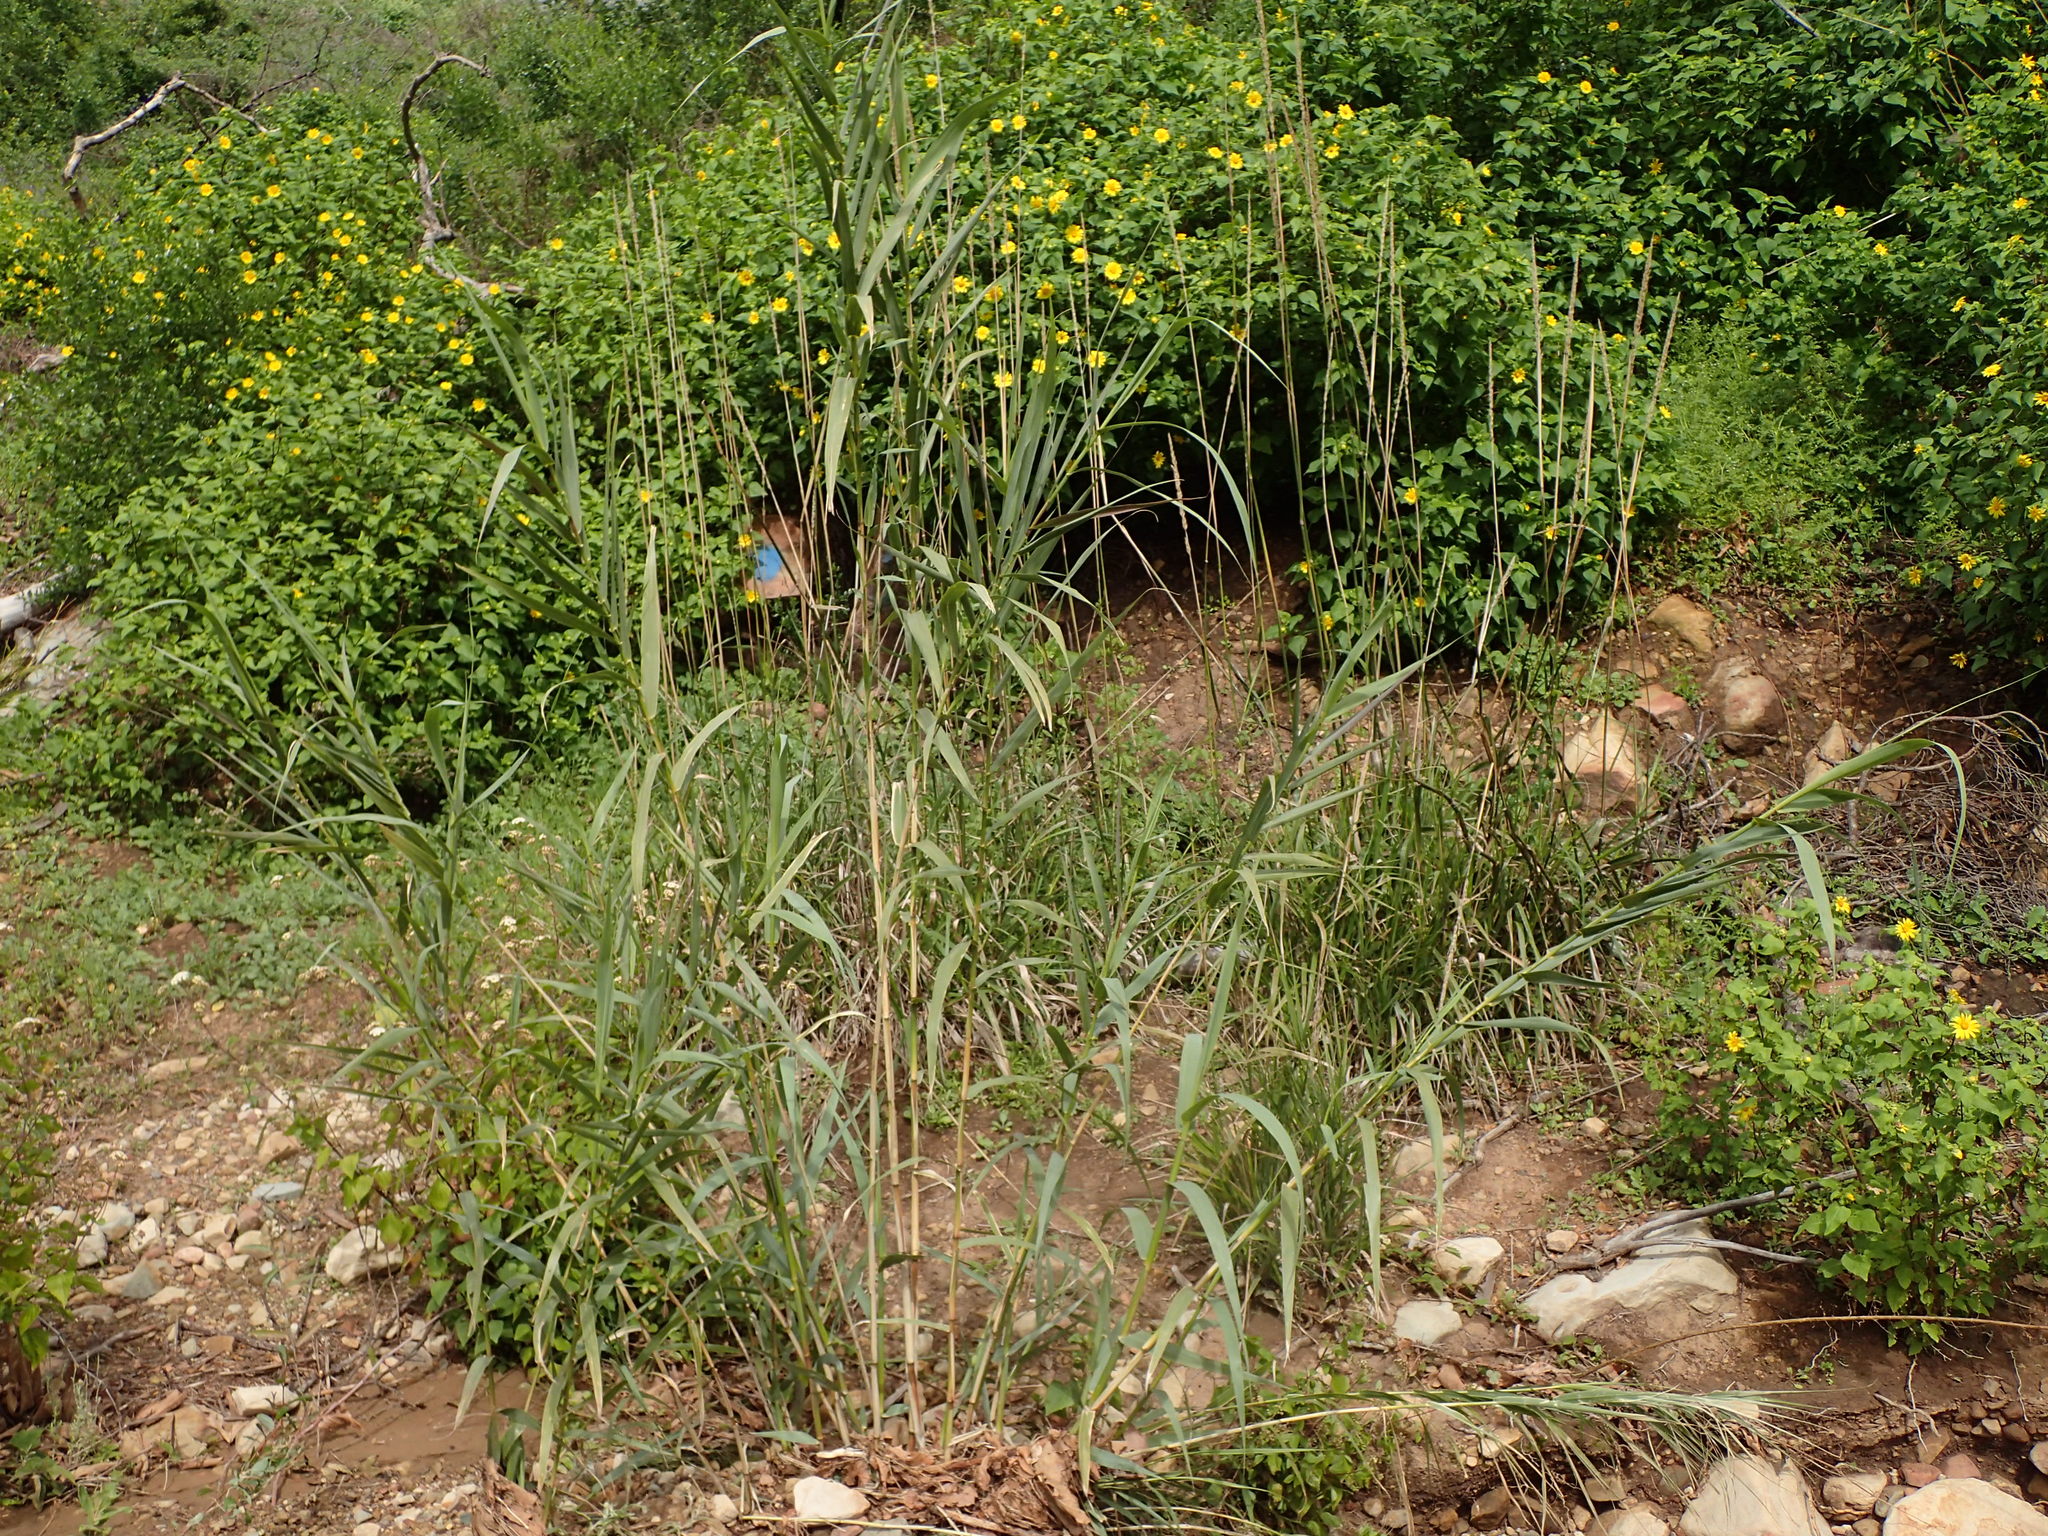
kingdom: Plantae
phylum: Tracheophyta
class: Liliopsida
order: Poales
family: Poaceae
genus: Arundo
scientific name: Arundo donax
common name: Giant reed
